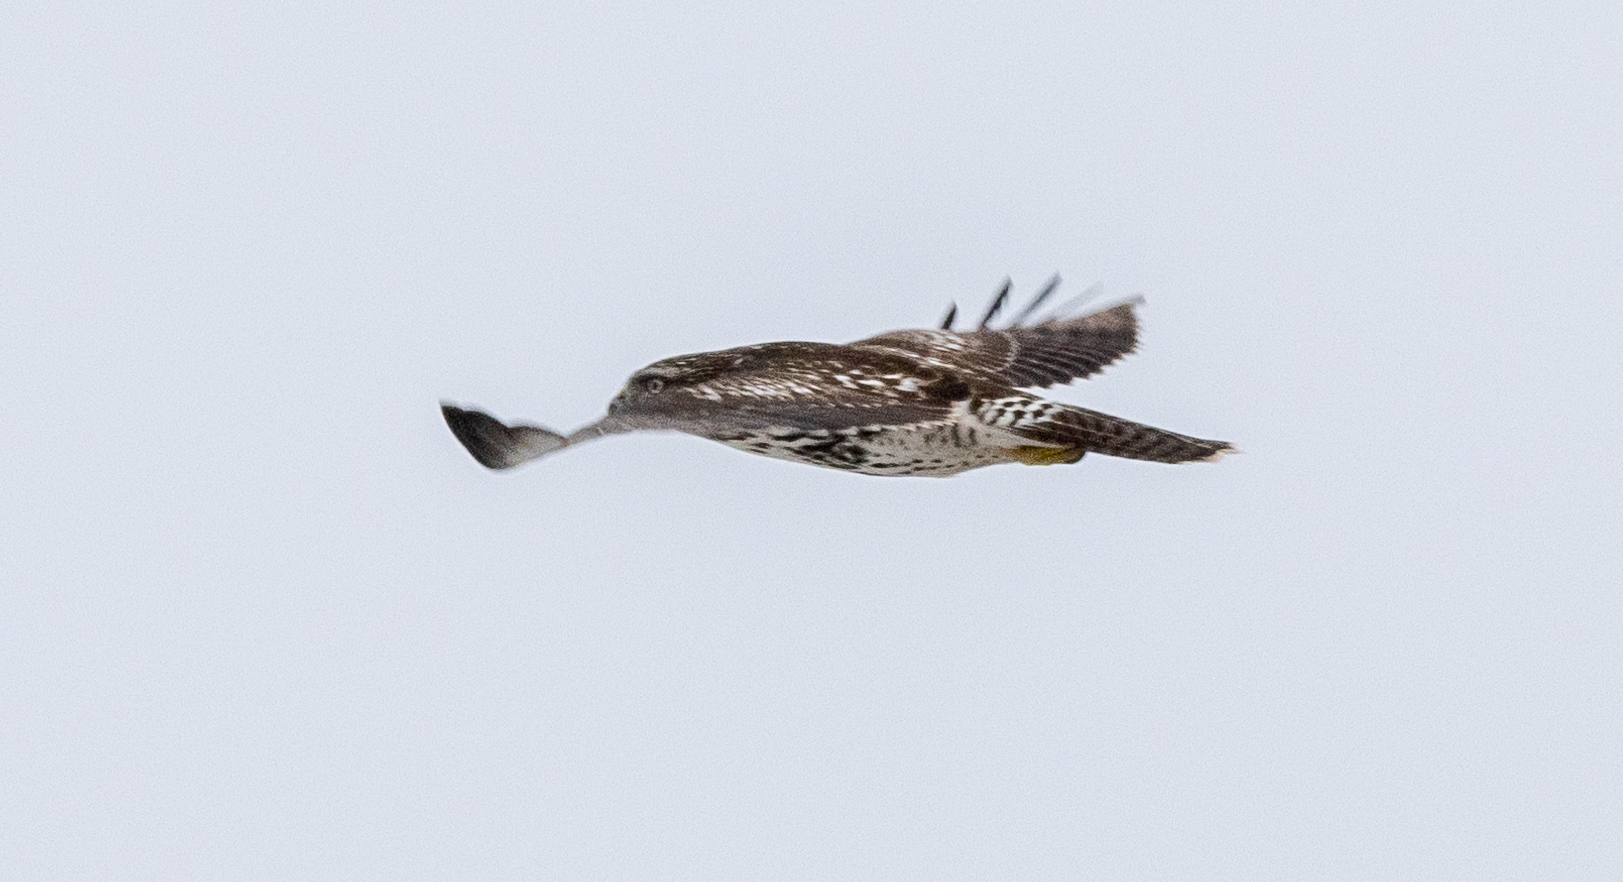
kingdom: Animalia
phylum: Chordata
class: Aves
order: Accipitriformes
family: Accipitridae
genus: Buteo
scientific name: Buteo jamaicensis
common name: Red-tailed hawk
